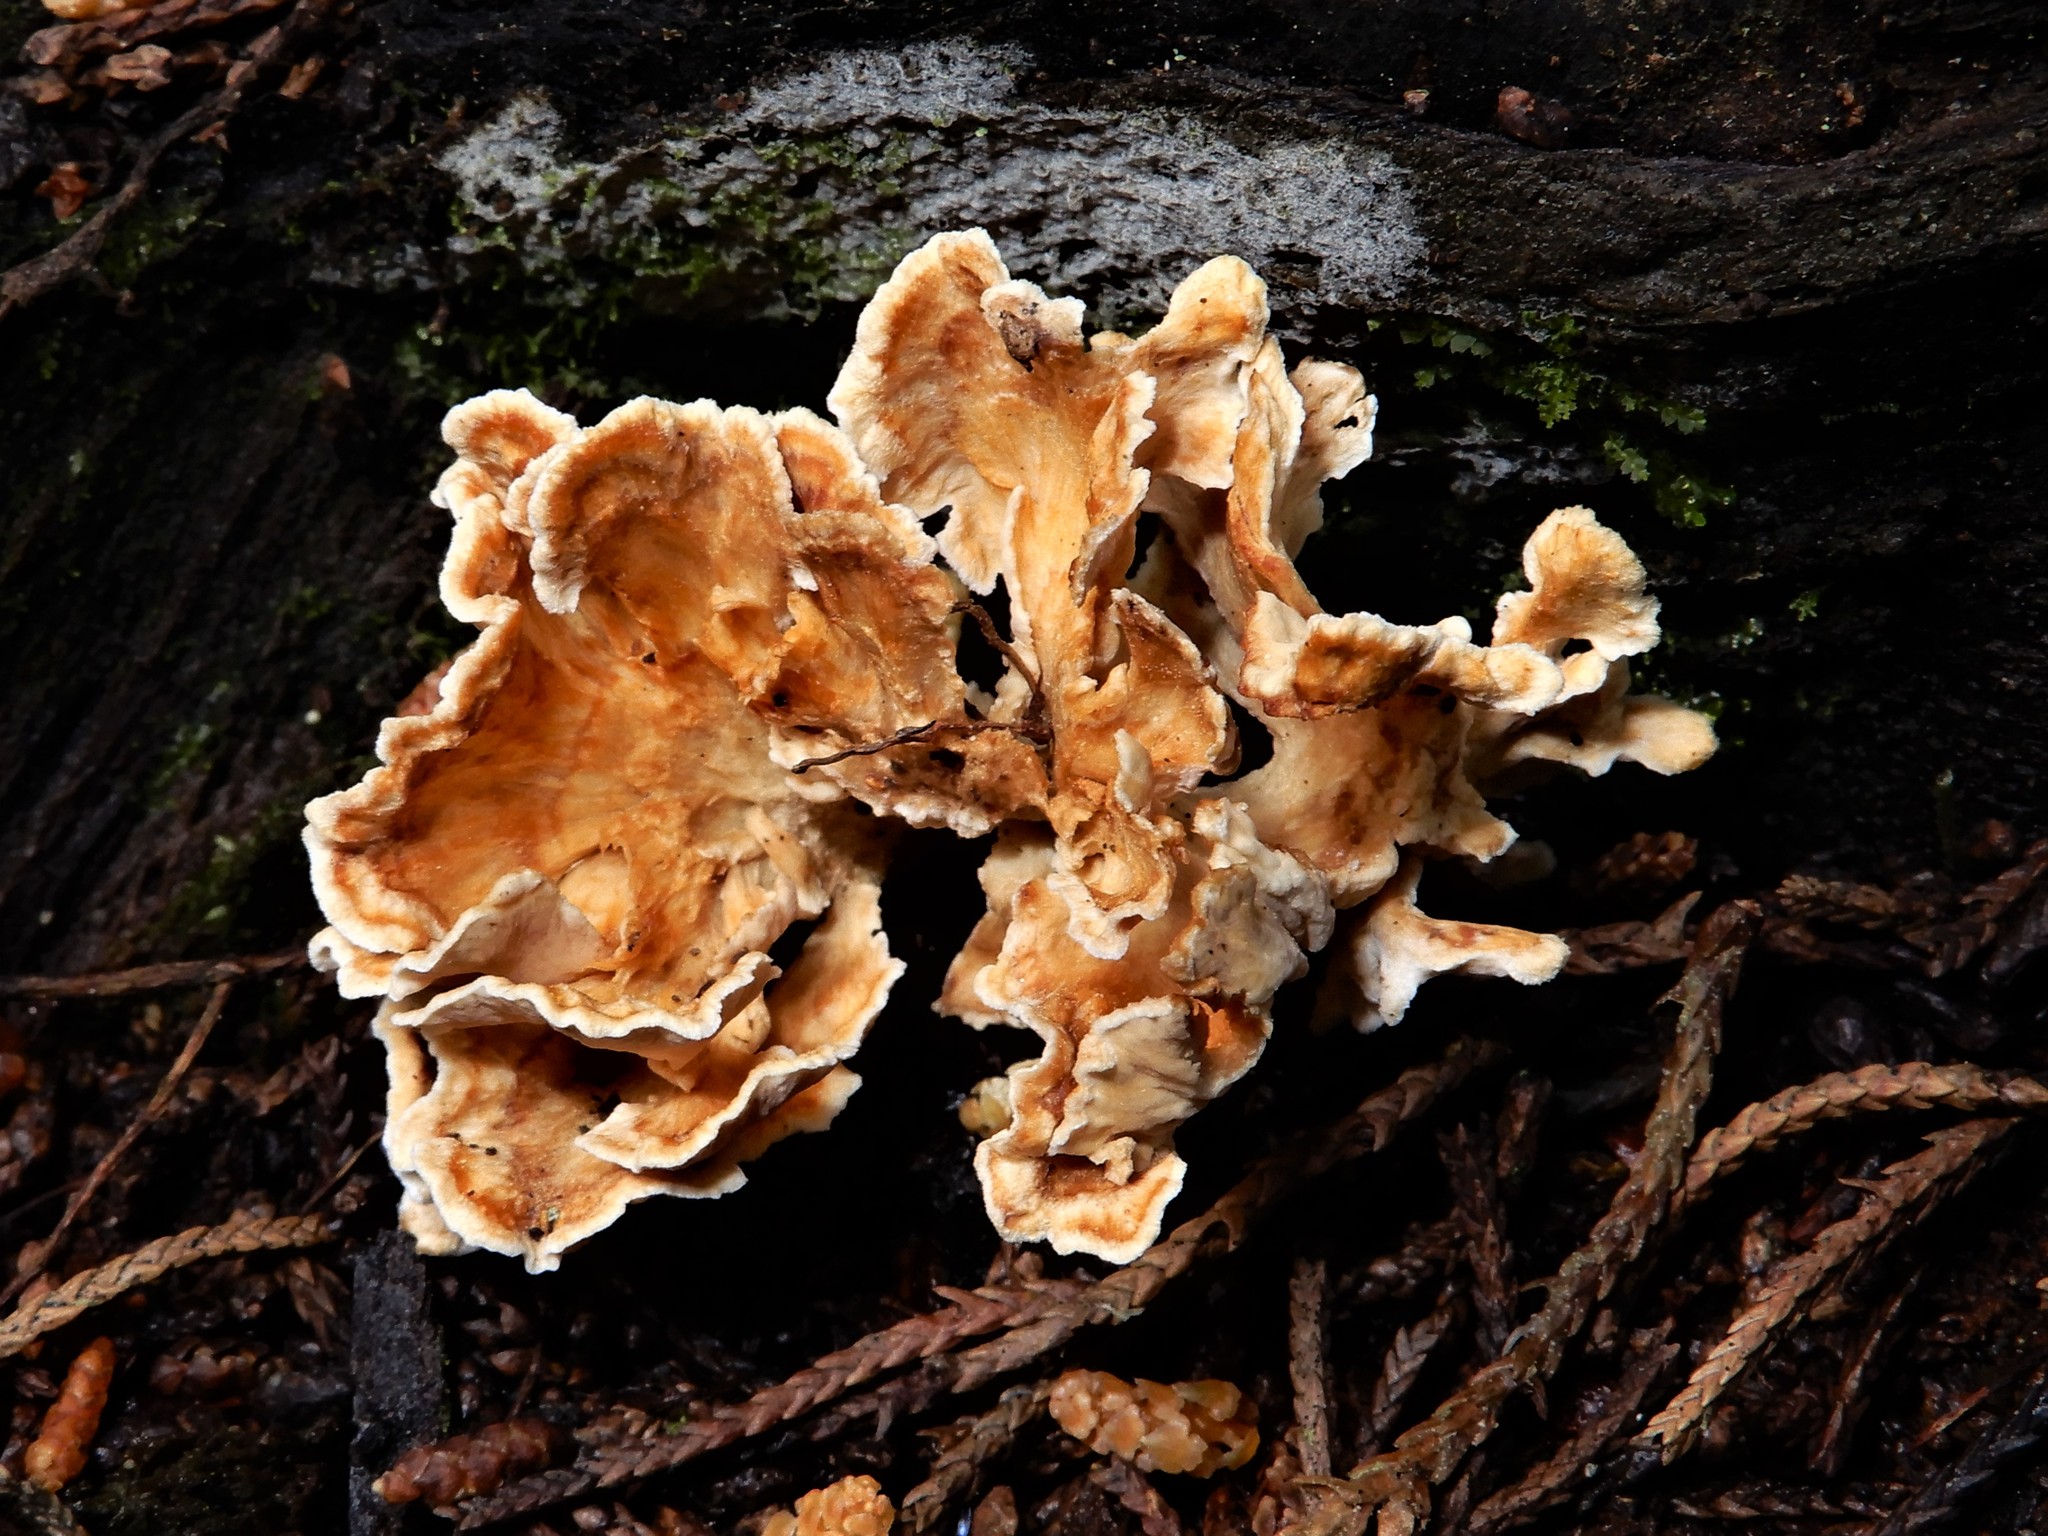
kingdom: Fungi
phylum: Basidiomycota
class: Agaricomycetes
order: Amylocorticiales
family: Amylocorticiaceae
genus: Podoserpula
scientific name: Podoserpula
